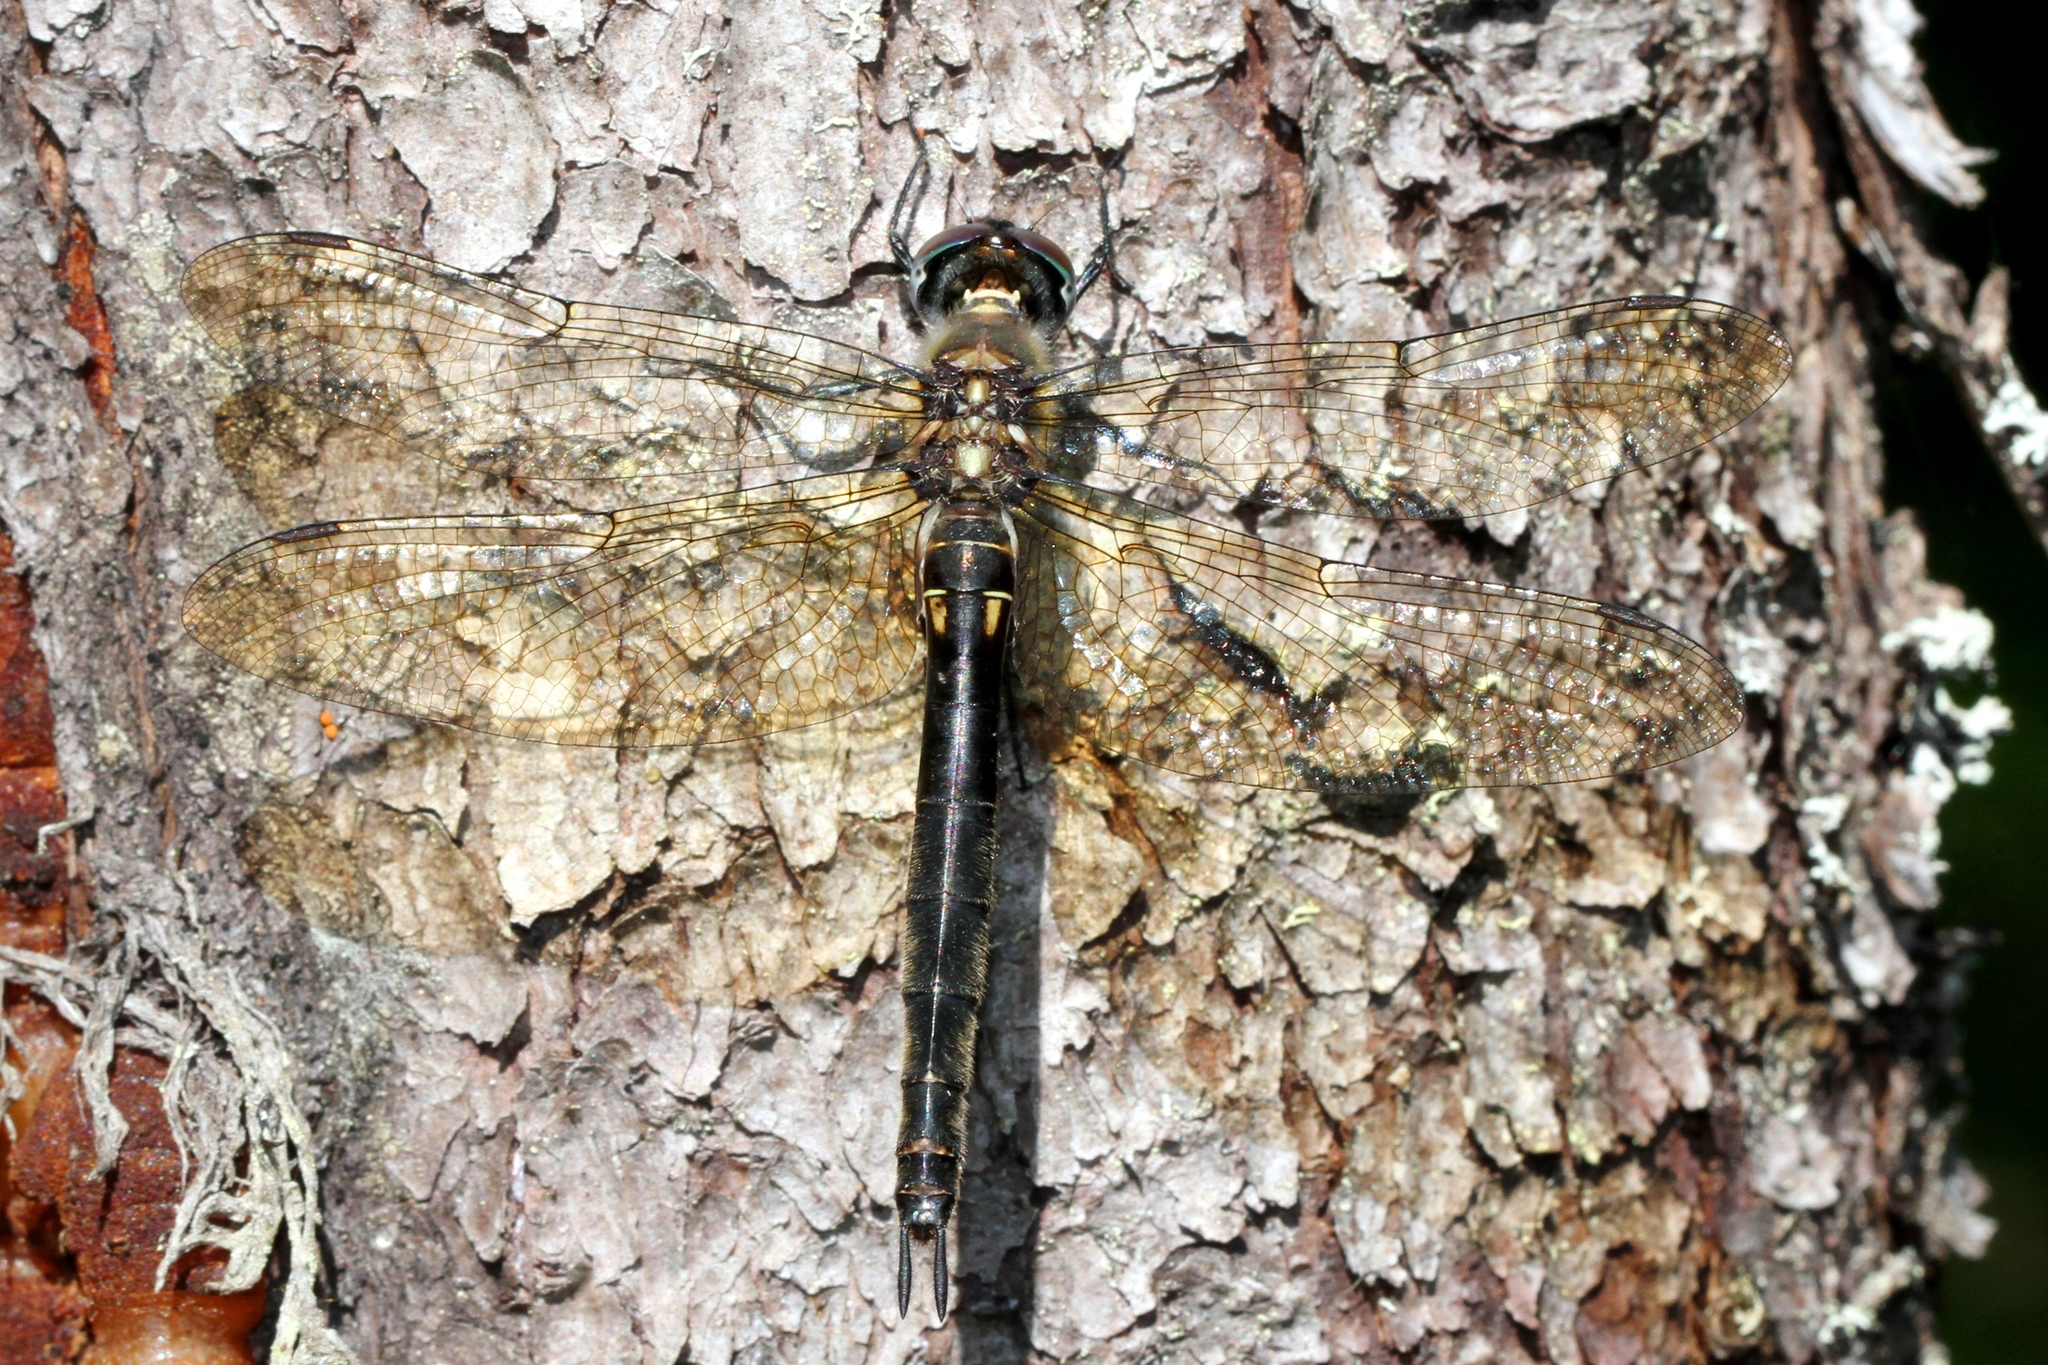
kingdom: Animalia
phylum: Arthropoda
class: Insecta
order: Odonata
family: Corduliidae
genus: Somatochlora
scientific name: Somatochlora minor
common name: Ocellated emerald
